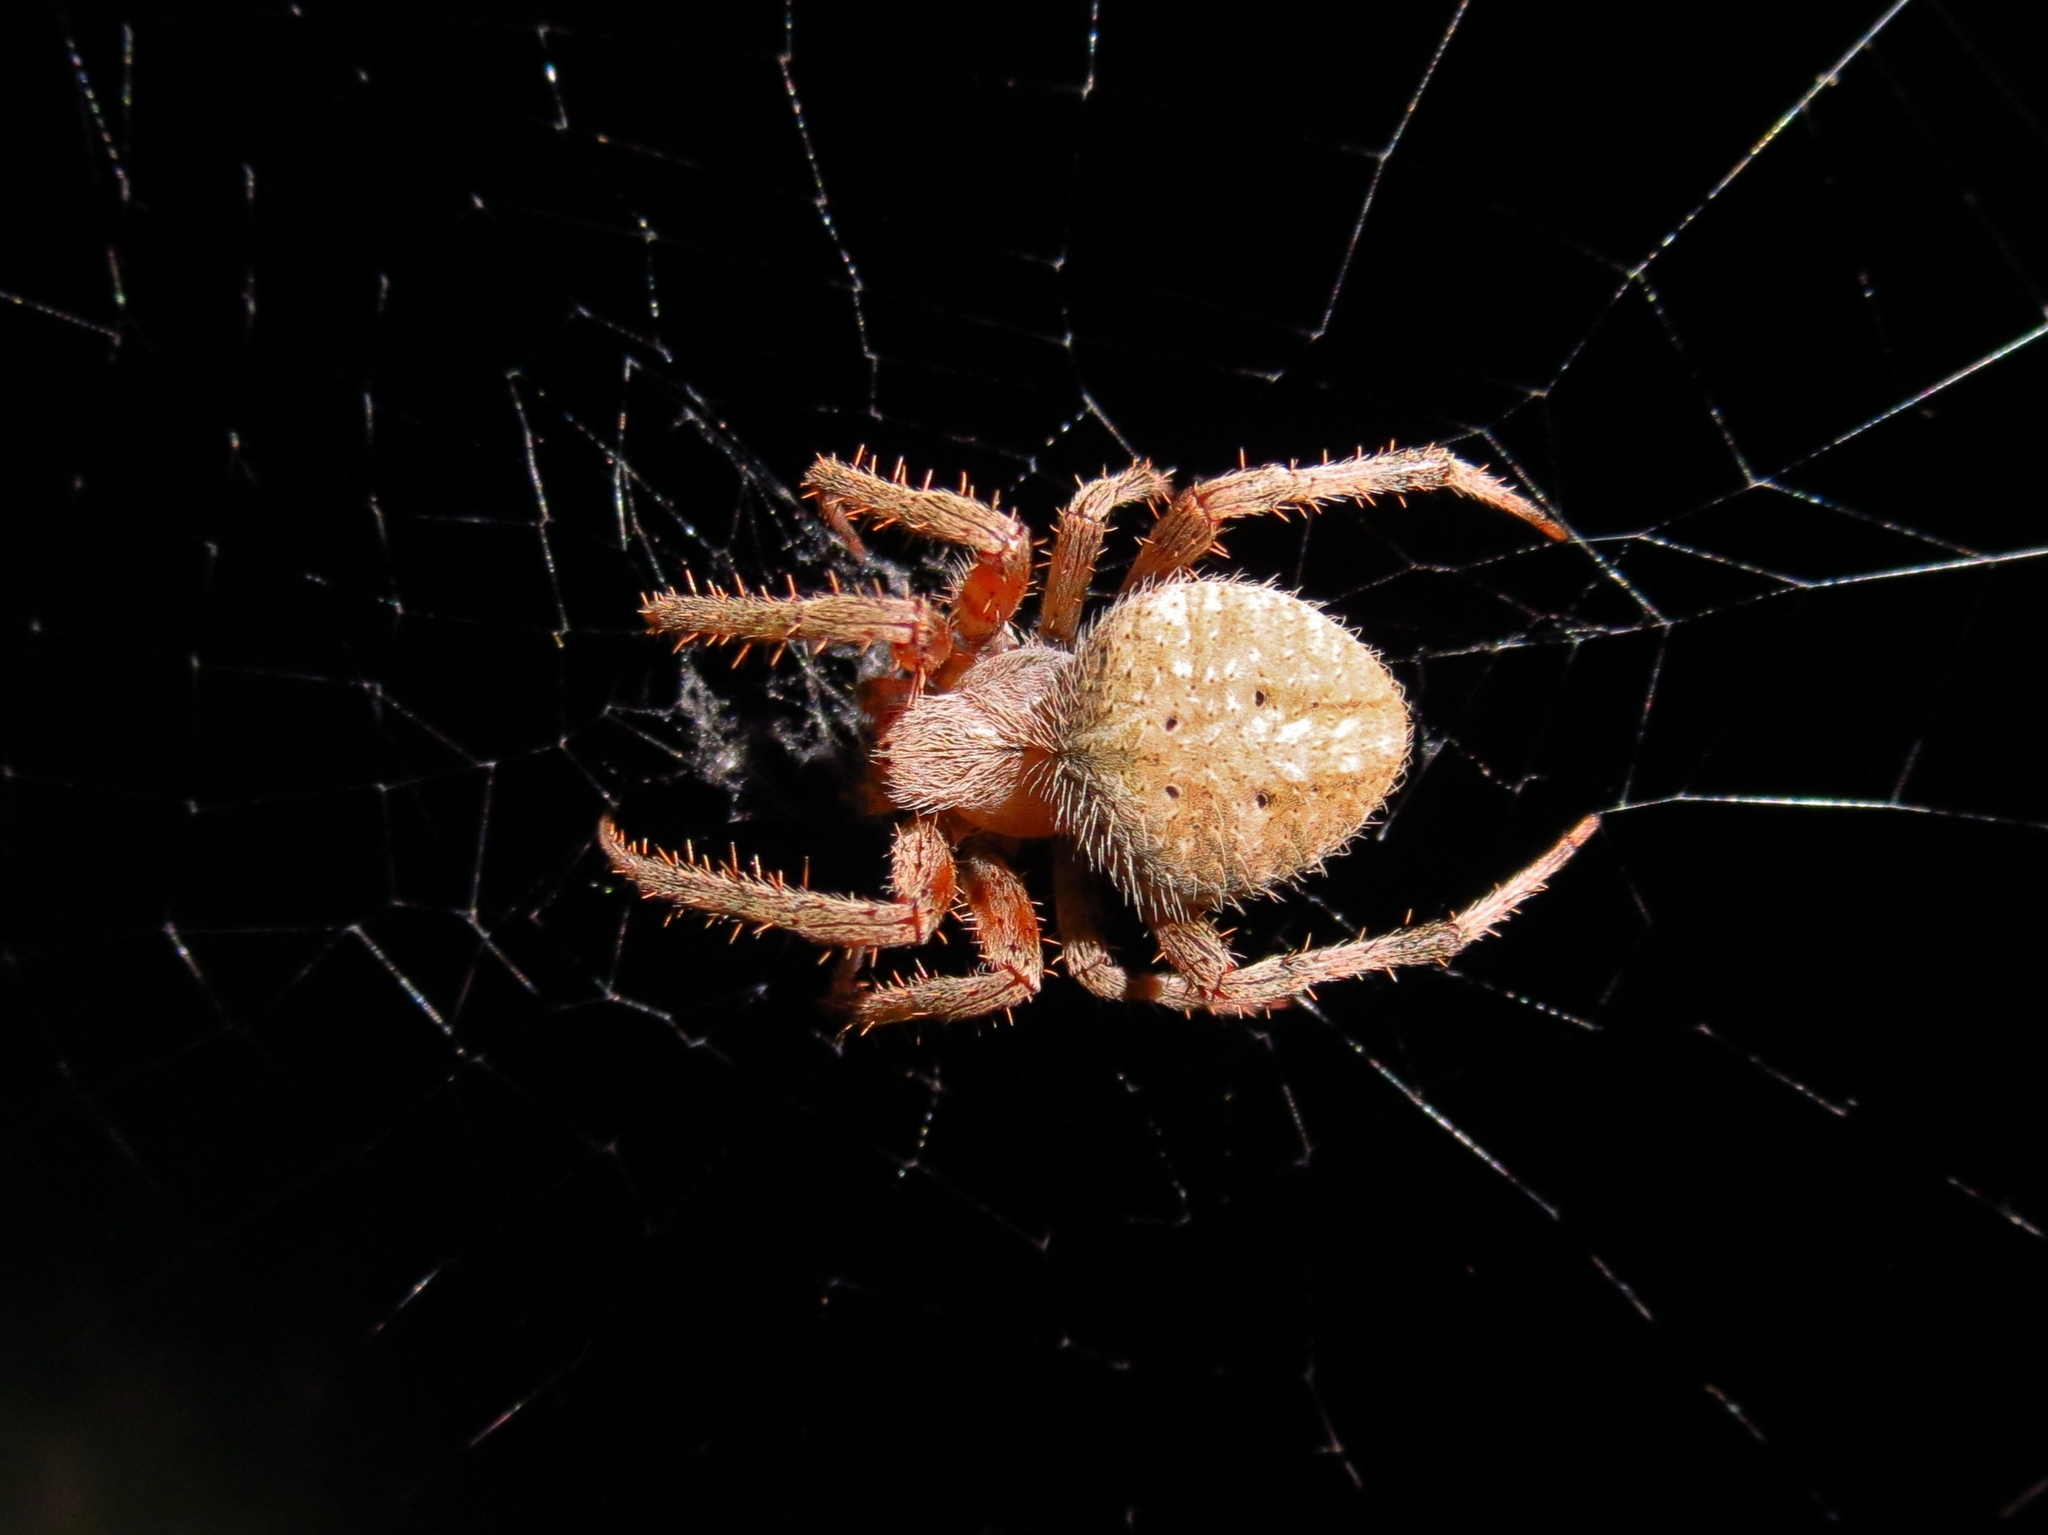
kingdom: Animalia
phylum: Arthropoda
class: Arachnida
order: Araneae
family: Araneidae
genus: Neoscona
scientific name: Neoscona crucifera
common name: Spotted orbweaver
